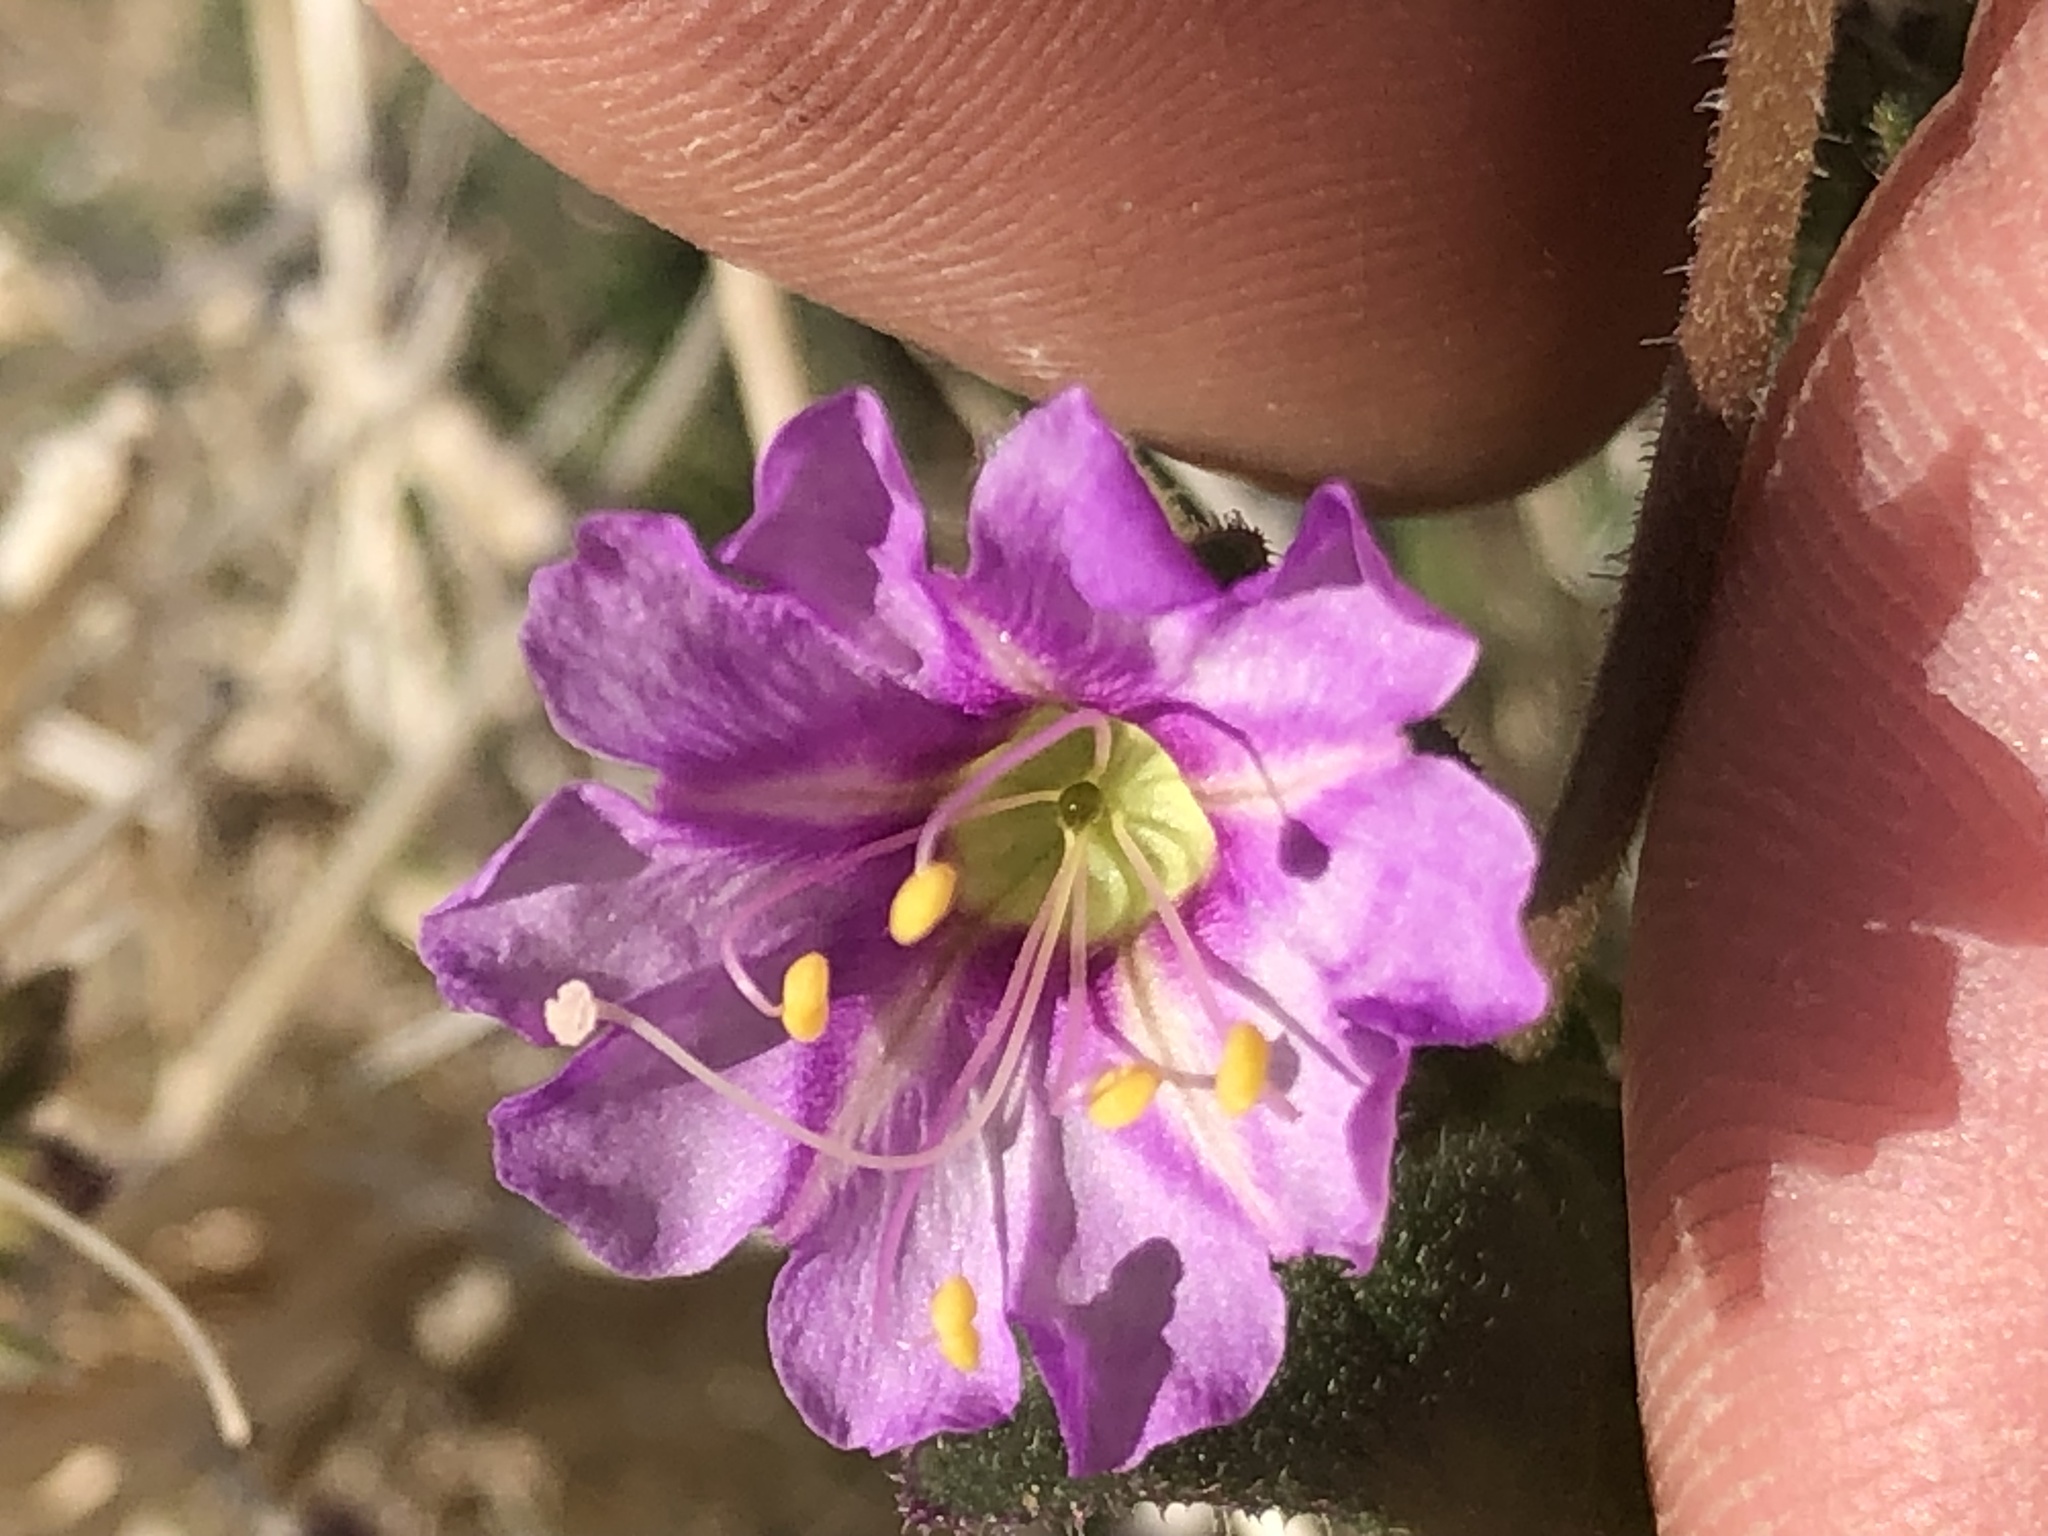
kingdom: Plantae
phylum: Tracheophyta
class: Magnoliopsida
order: Caryophyllales
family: Nyctaginaceae
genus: Mirabilis
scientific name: Mirabilis laevis
